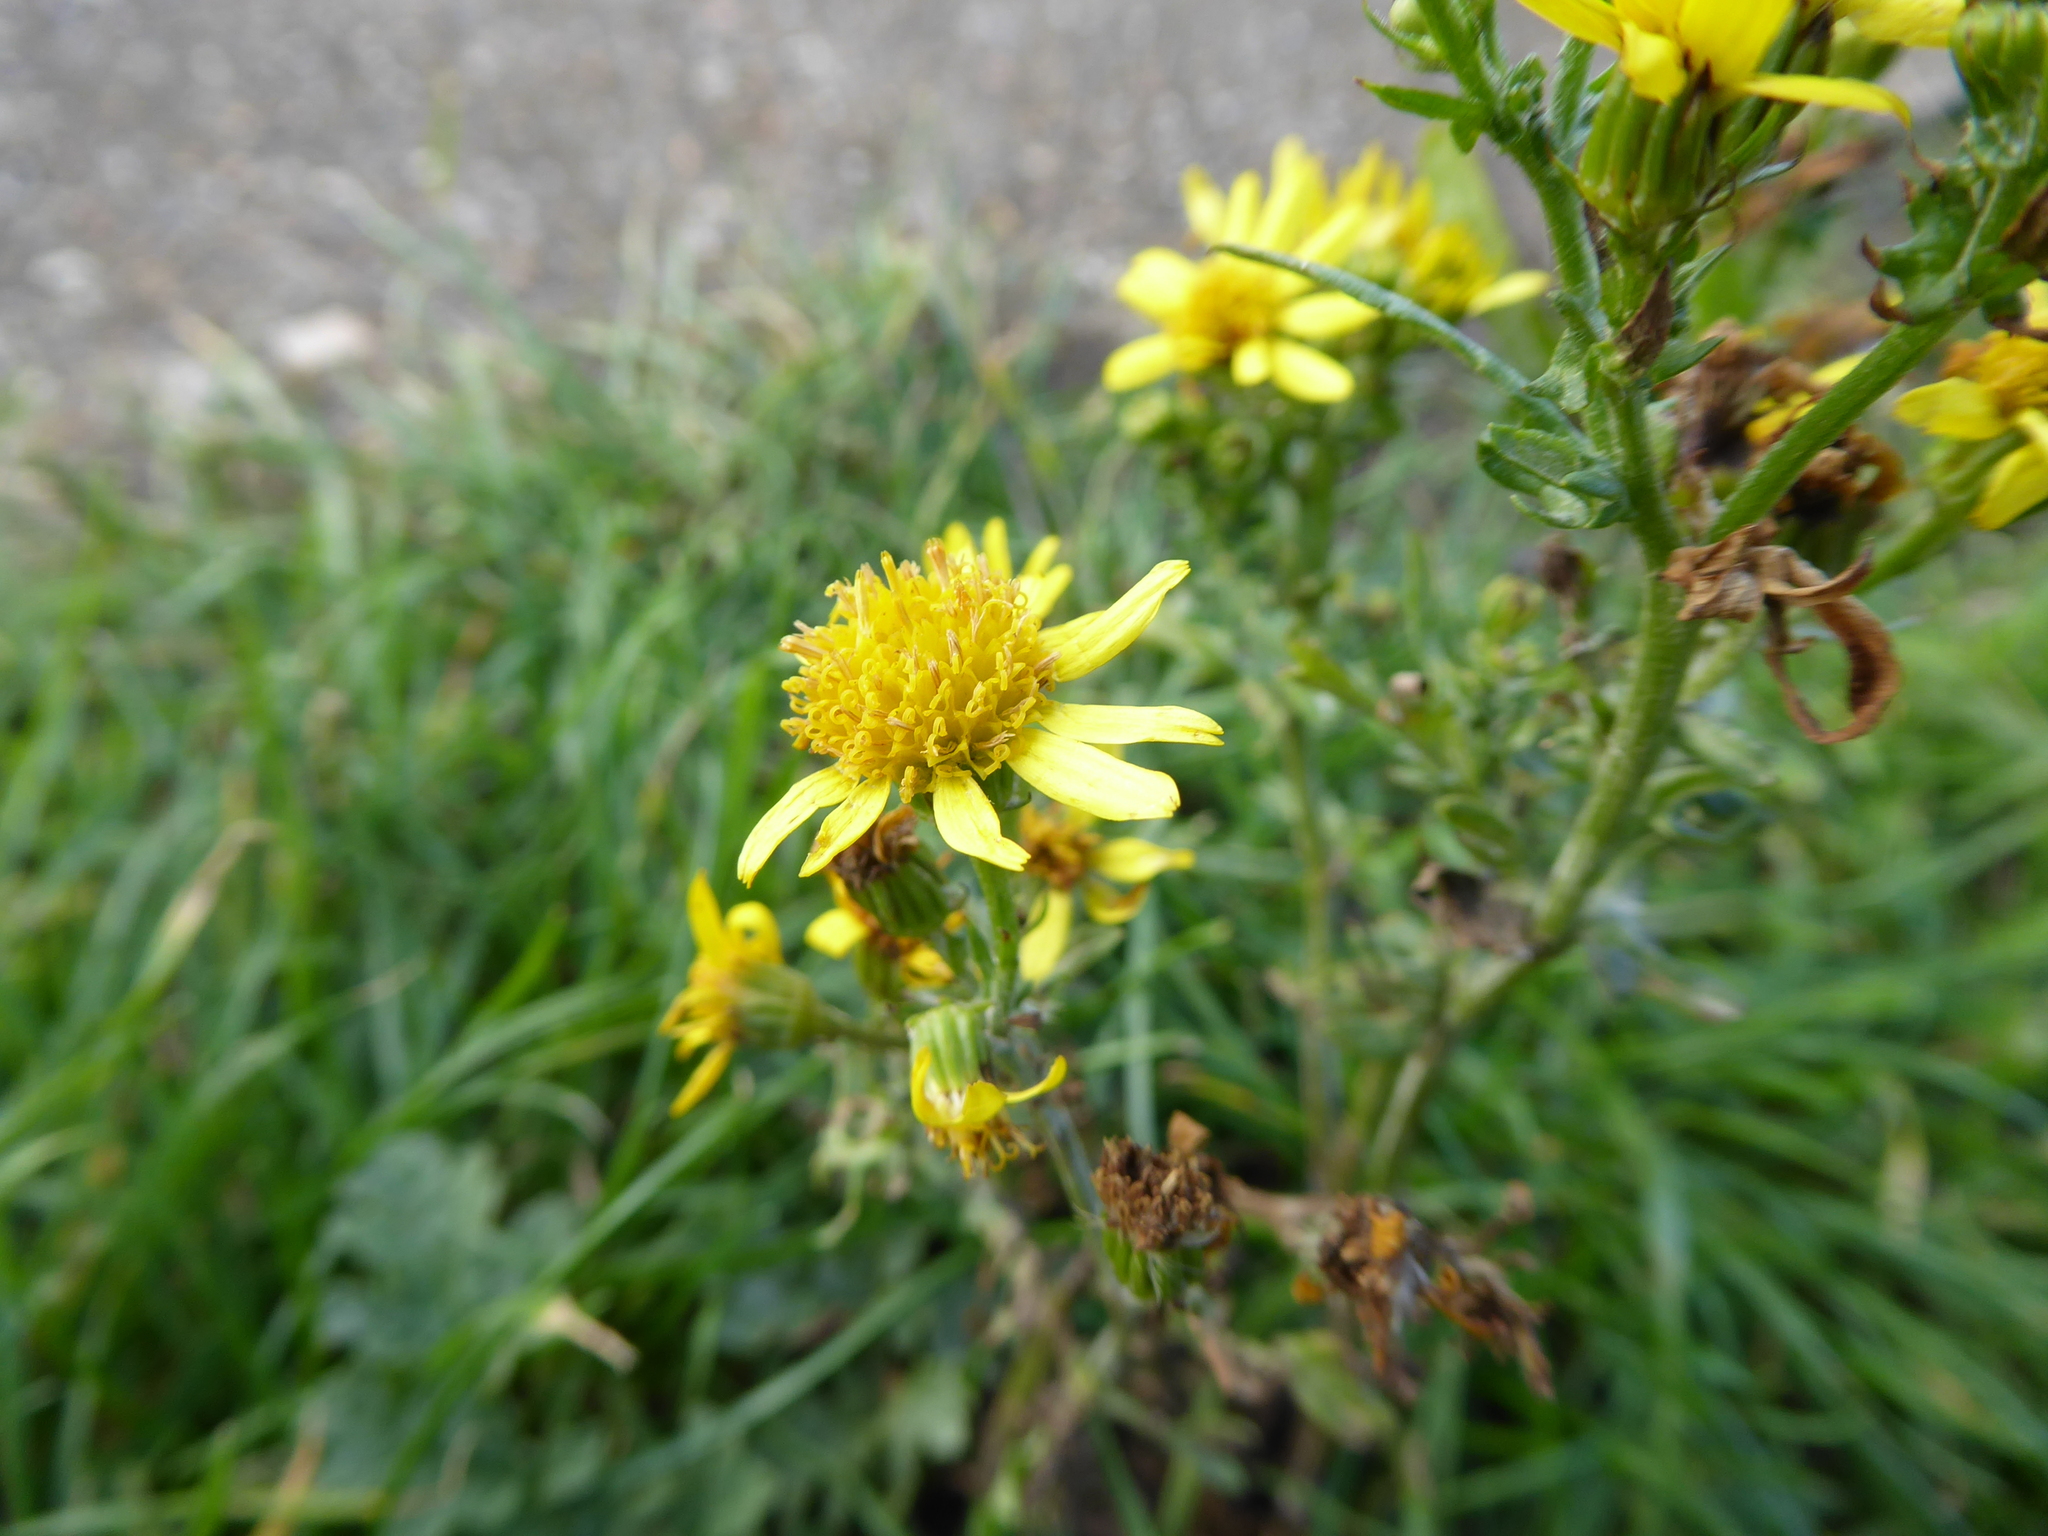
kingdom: Plantae
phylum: Tracheophyta
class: Magnoliopsida
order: Asterales
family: Asteraceae
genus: Jacobaea
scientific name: Jacobaea vulgaris
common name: Stinking willie
